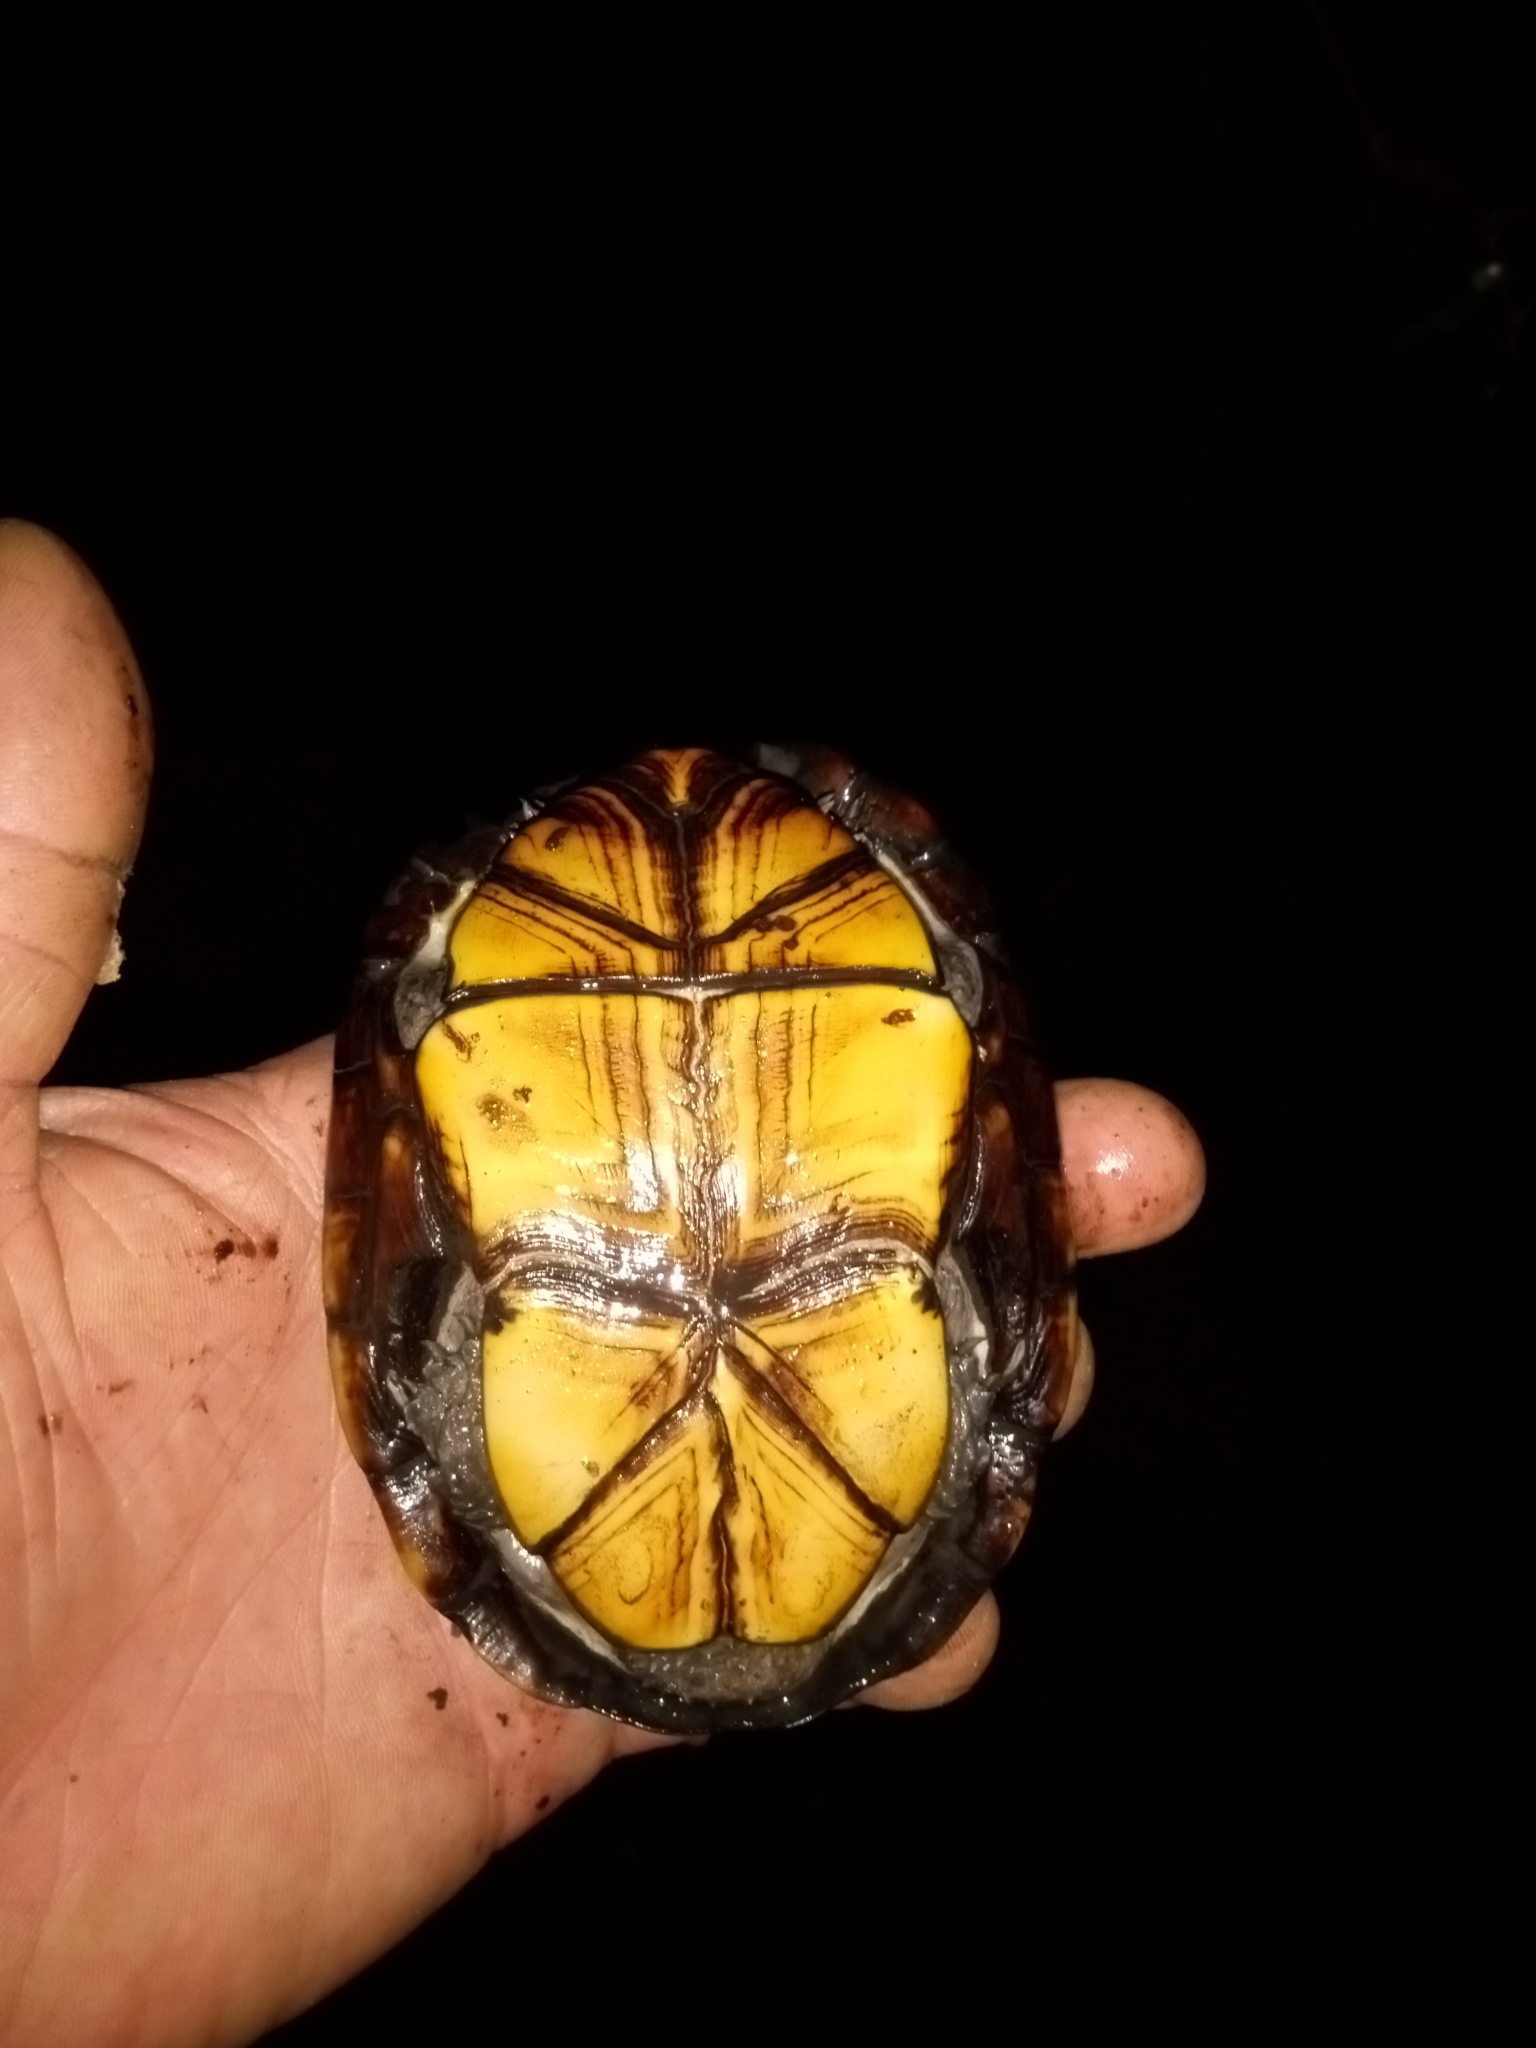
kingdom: Animalia
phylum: Chordata
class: Testudines
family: Kinosternidae
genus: Kinosternon
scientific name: Kinosternon subrubrum
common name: Eastern mud turtle
